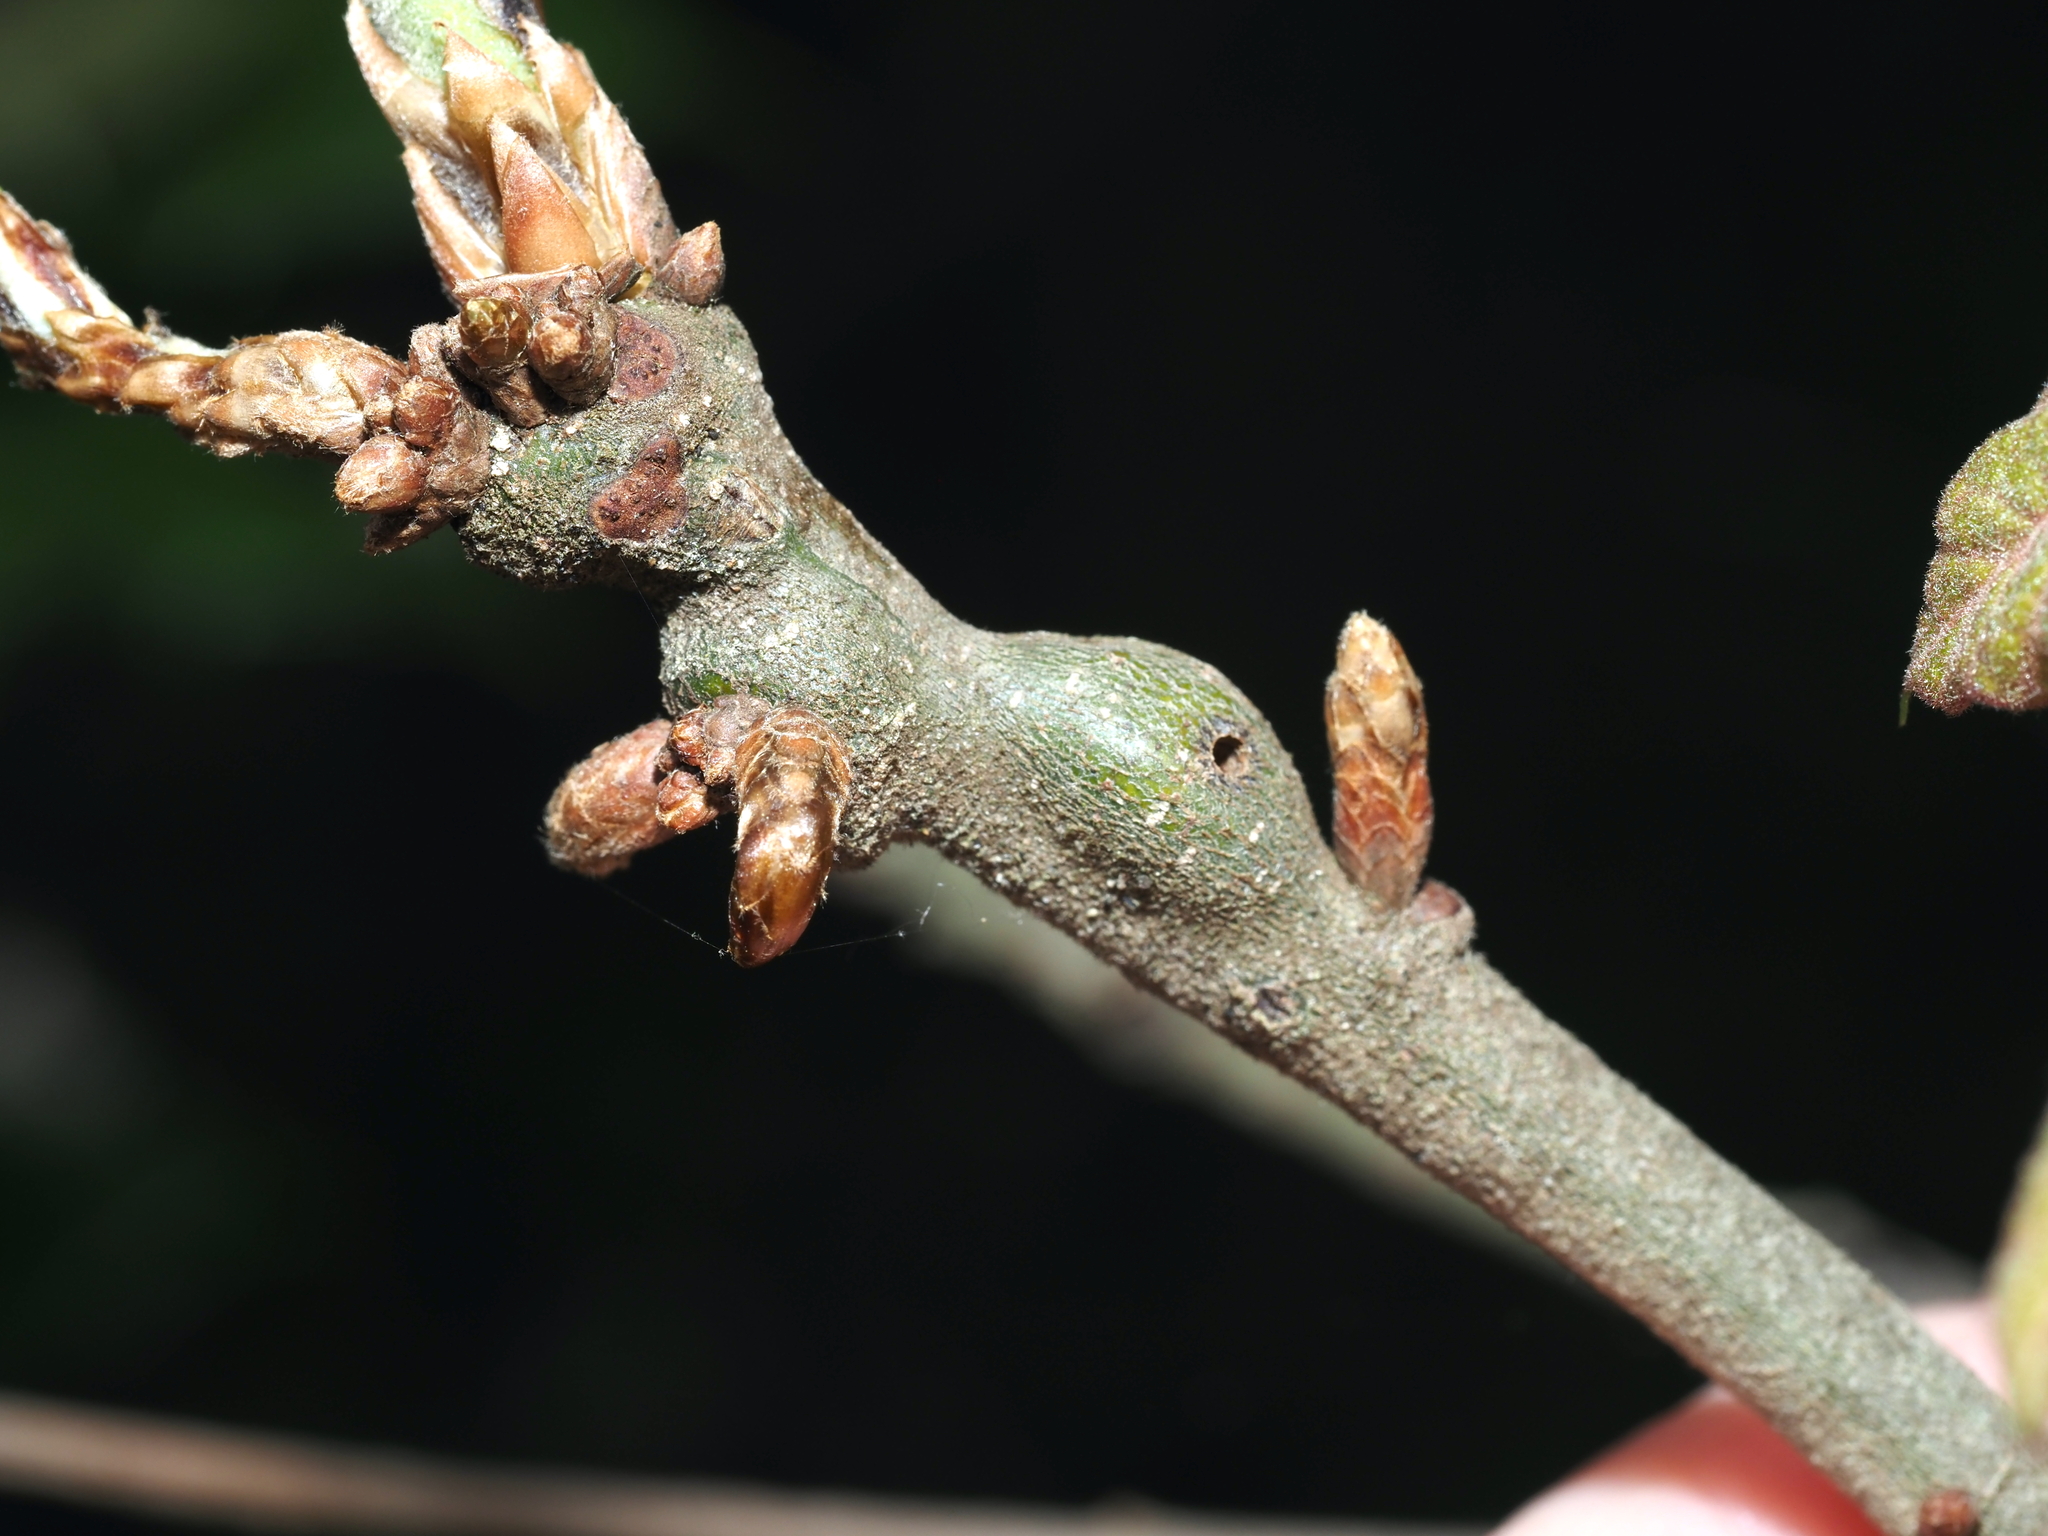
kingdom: Animalia
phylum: Arthropoda
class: Insecta
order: Hymenoptera
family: Cynipidae
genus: Zapatella
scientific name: Zapatella quercusmedullae
